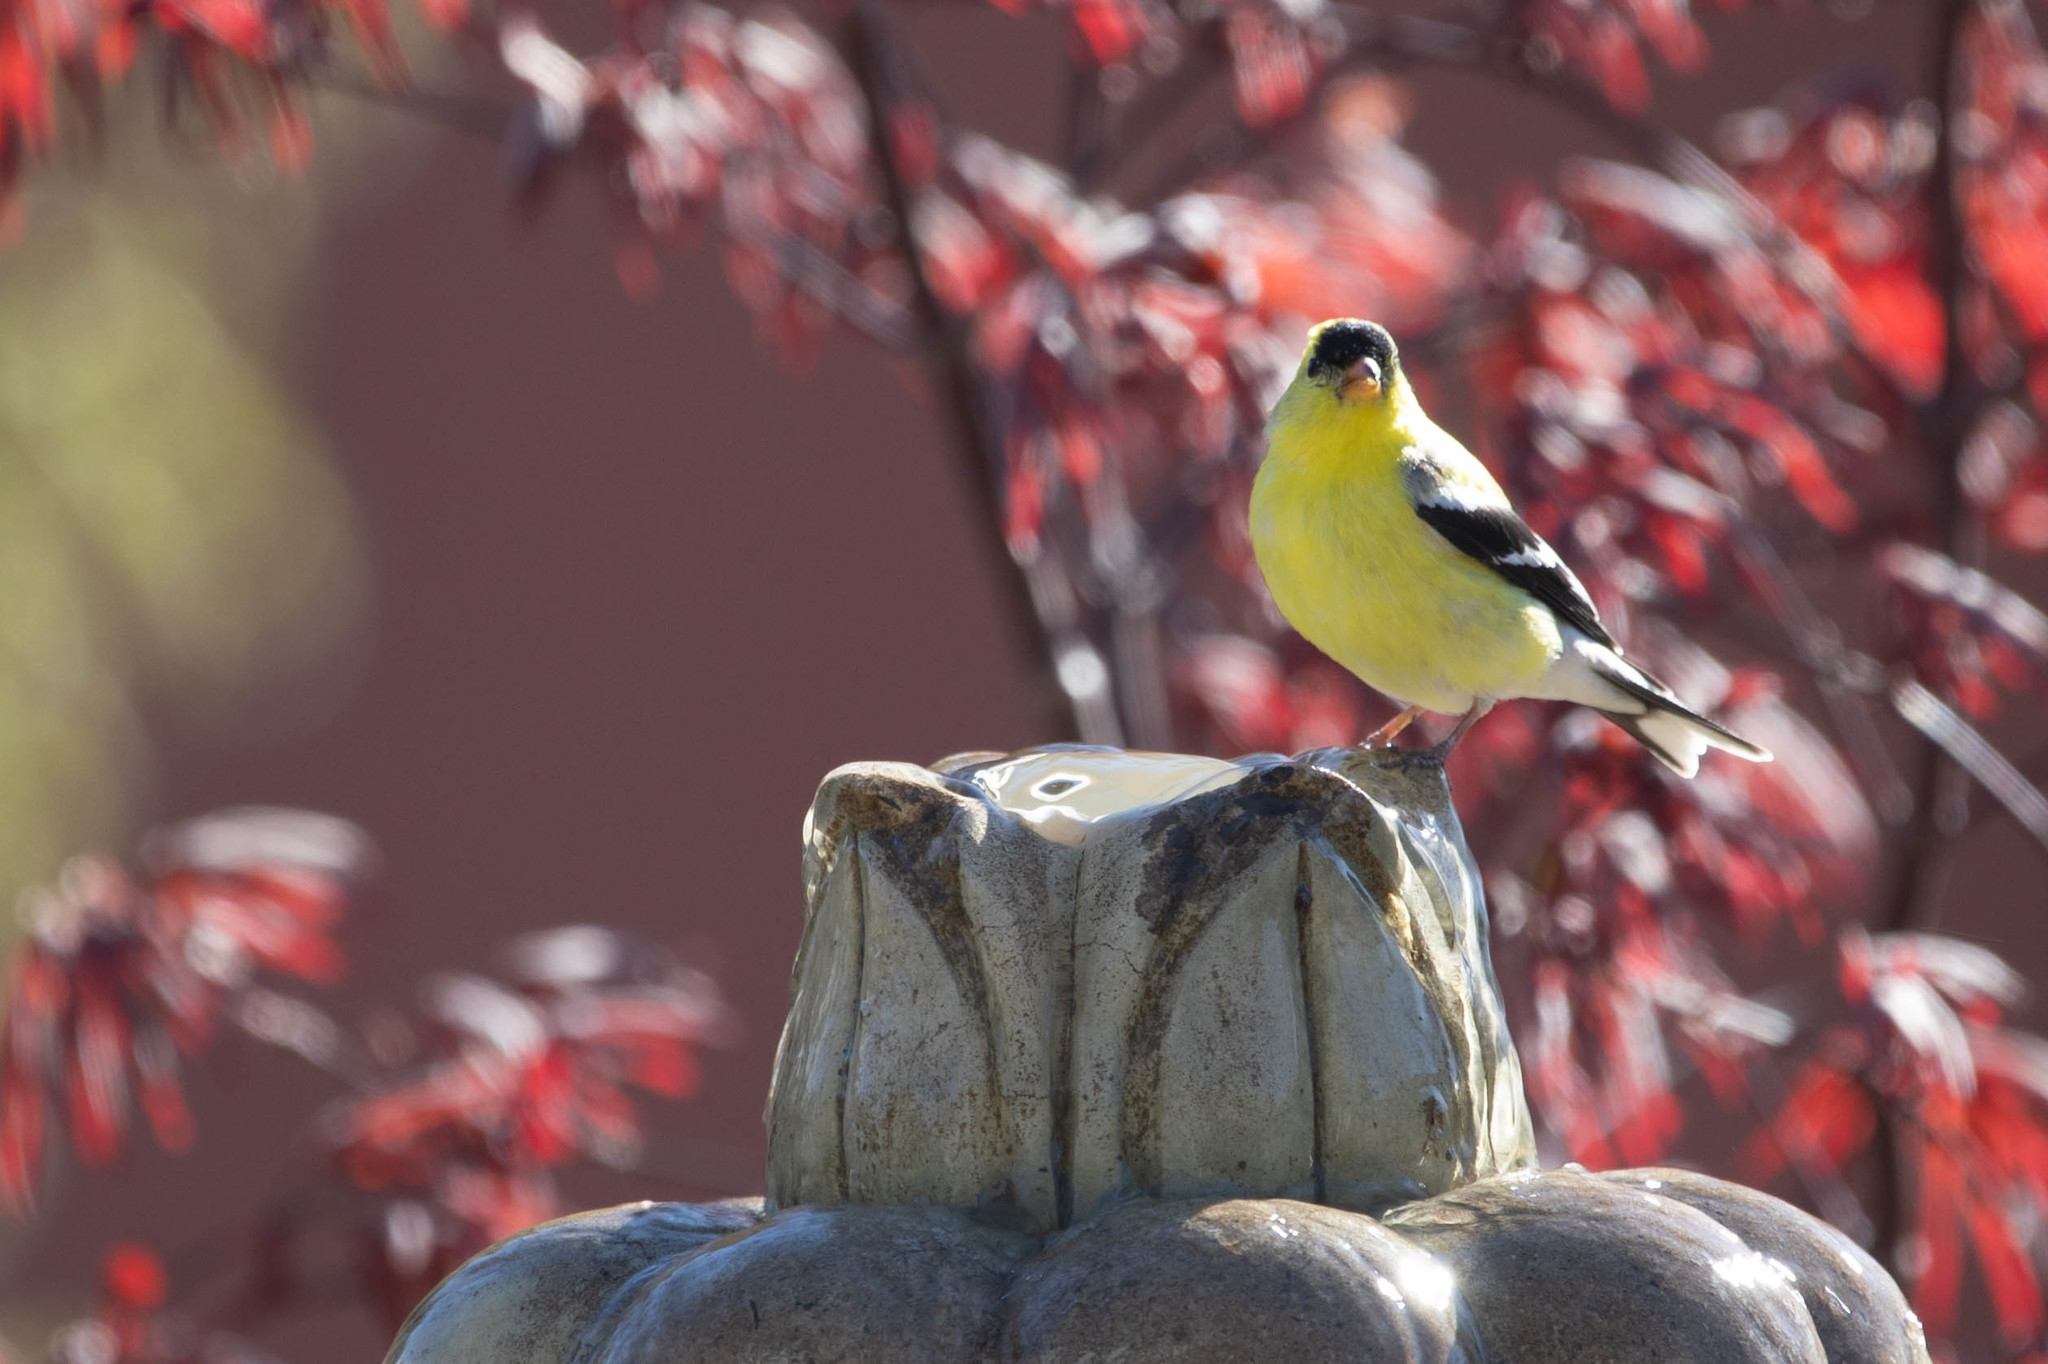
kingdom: Animalia
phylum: Chordata
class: Aves
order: Passeriformes
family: Fringillidae
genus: Spinus
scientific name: Spinus tristis
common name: American goldfinch
